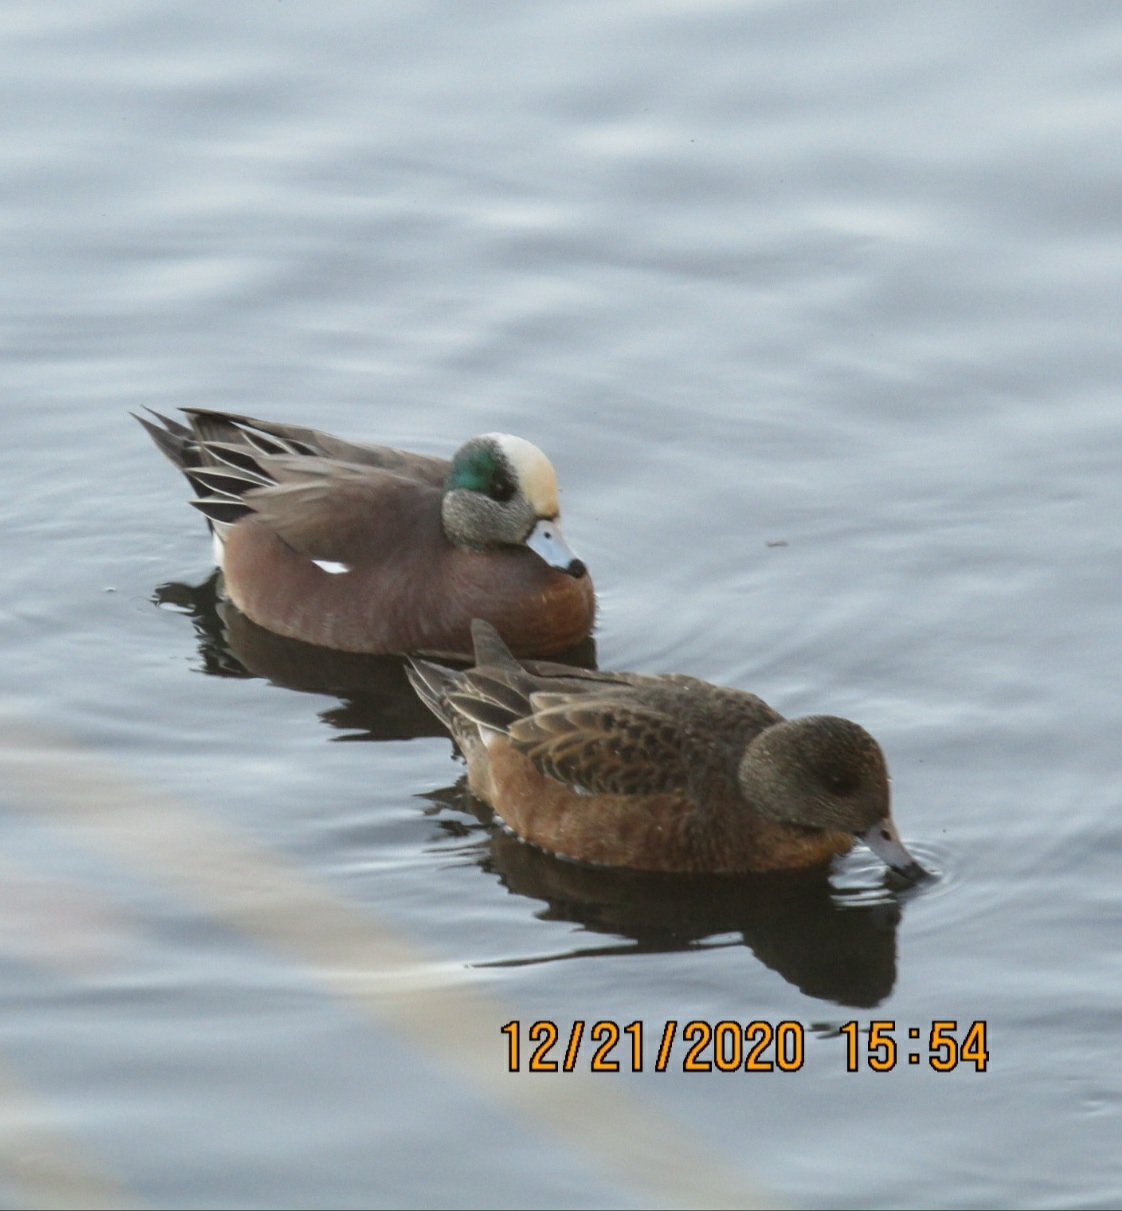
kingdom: Animalia
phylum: Chordata
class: Aves
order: Anseriformes
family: Anatidae
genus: Mareca
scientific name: Mareca americana
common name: American wigeon
